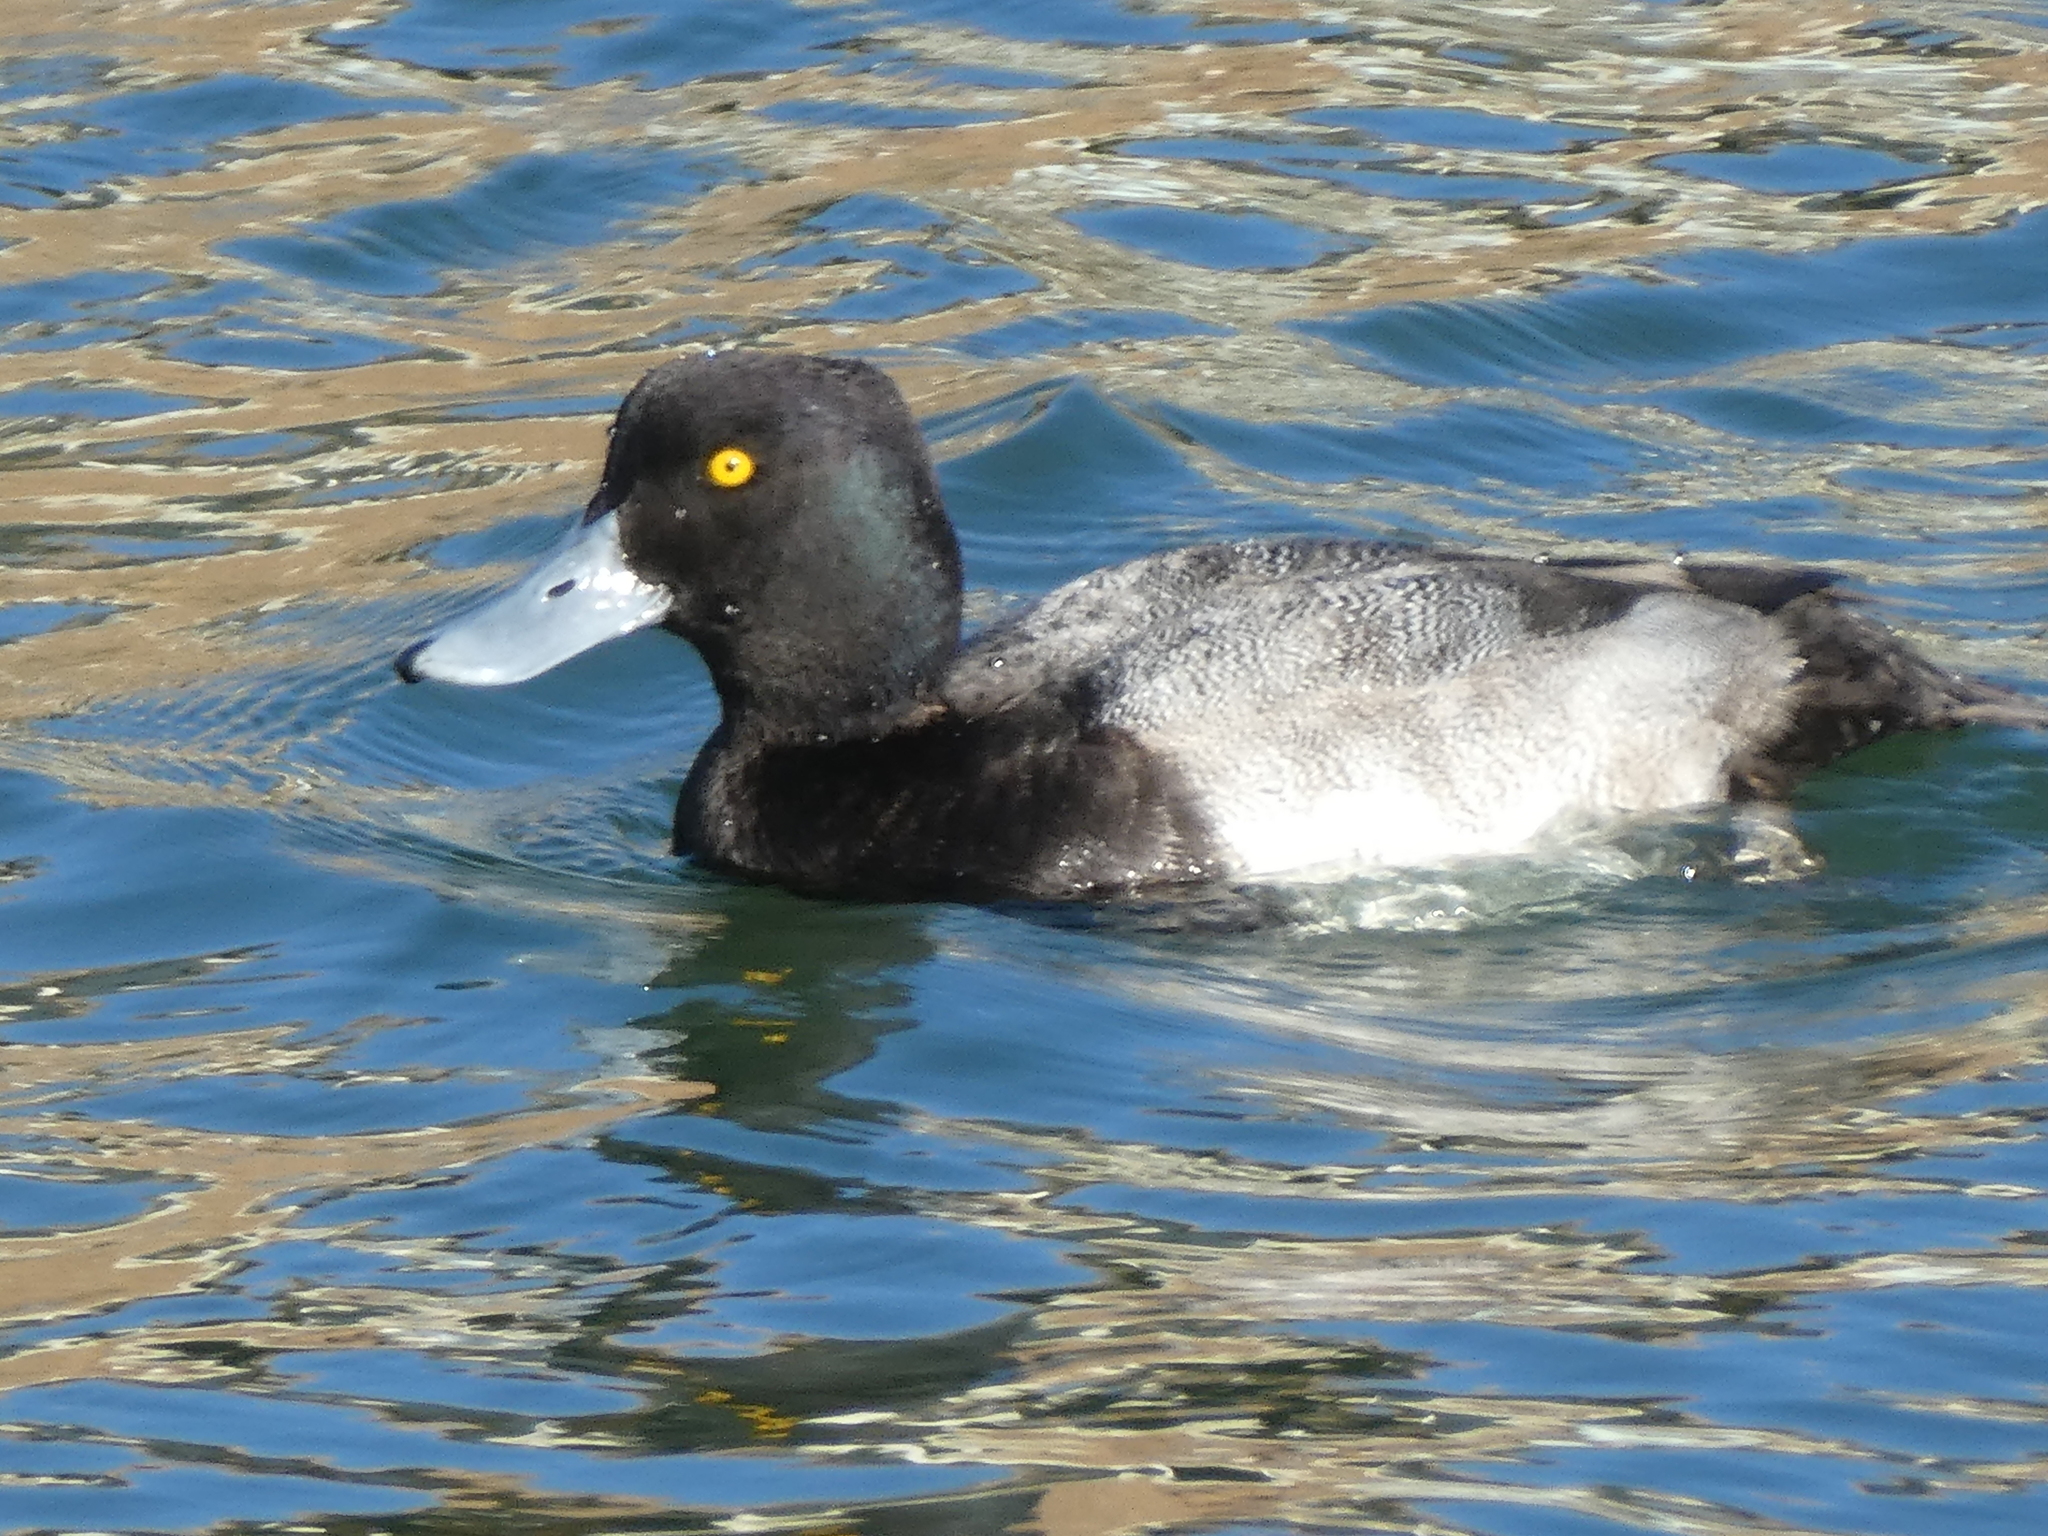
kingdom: Animalia
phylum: Chordata
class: Aves
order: Anseriformes
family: Anatidae
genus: Aythya
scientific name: Aythya affinis
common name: Lesser scaup
